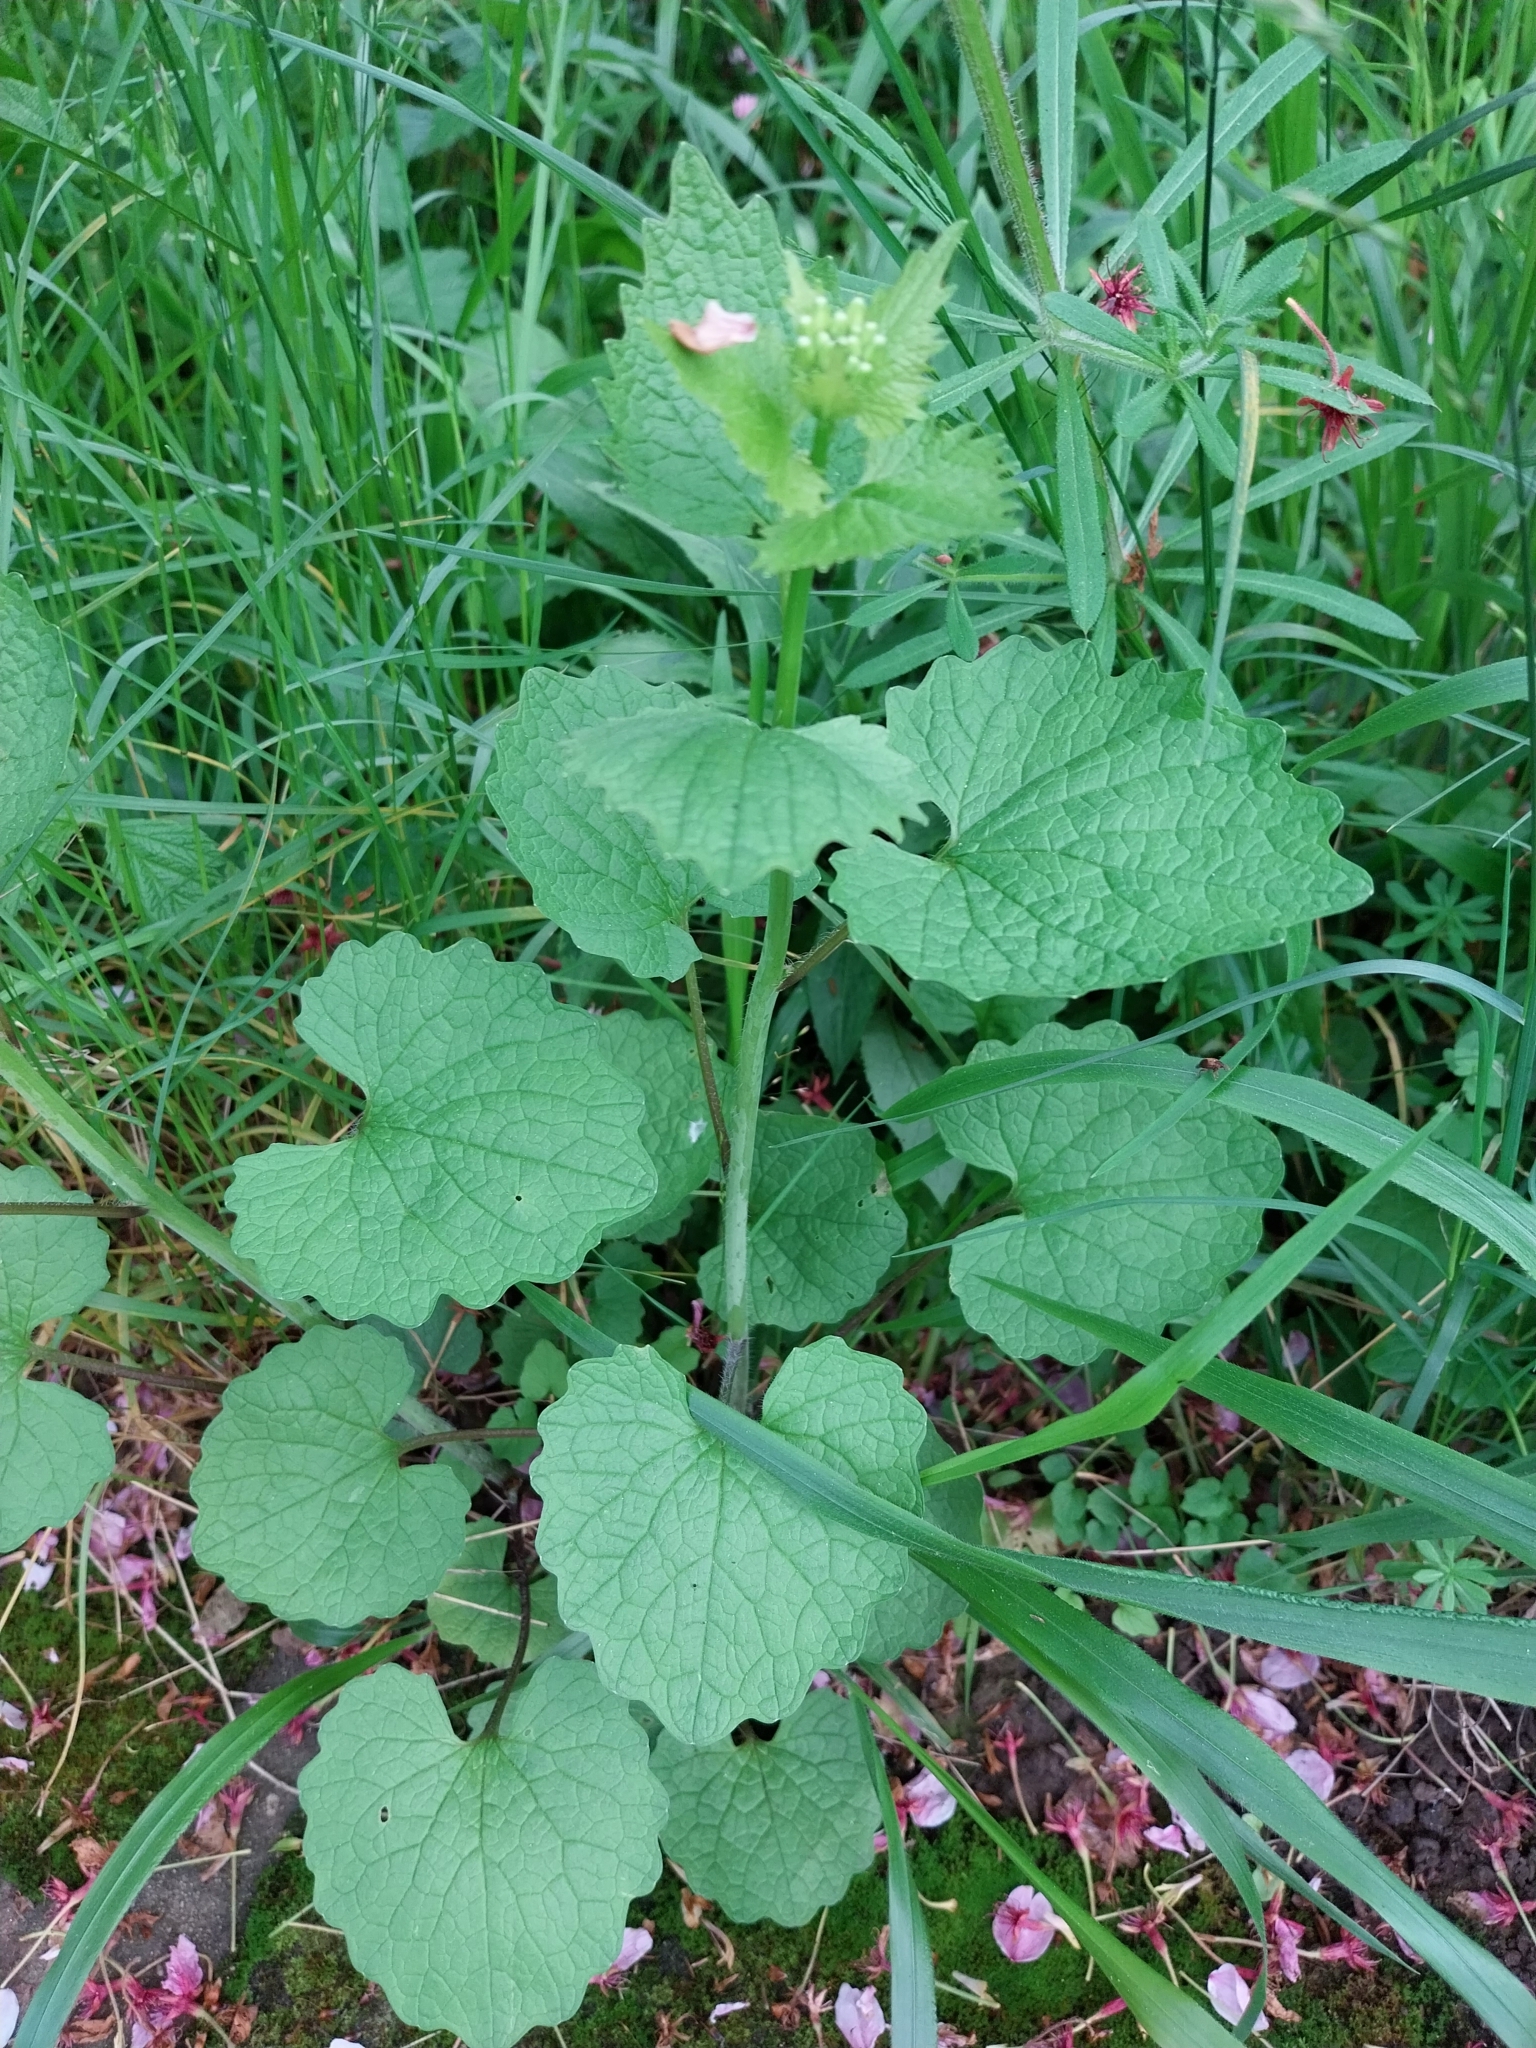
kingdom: Plantae
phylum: Tracheophyta
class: Magnoliopsida
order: Brassicales
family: Brassicaceae
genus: Alliaria
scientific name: Alliaria petiolata
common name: Garlic mustard
